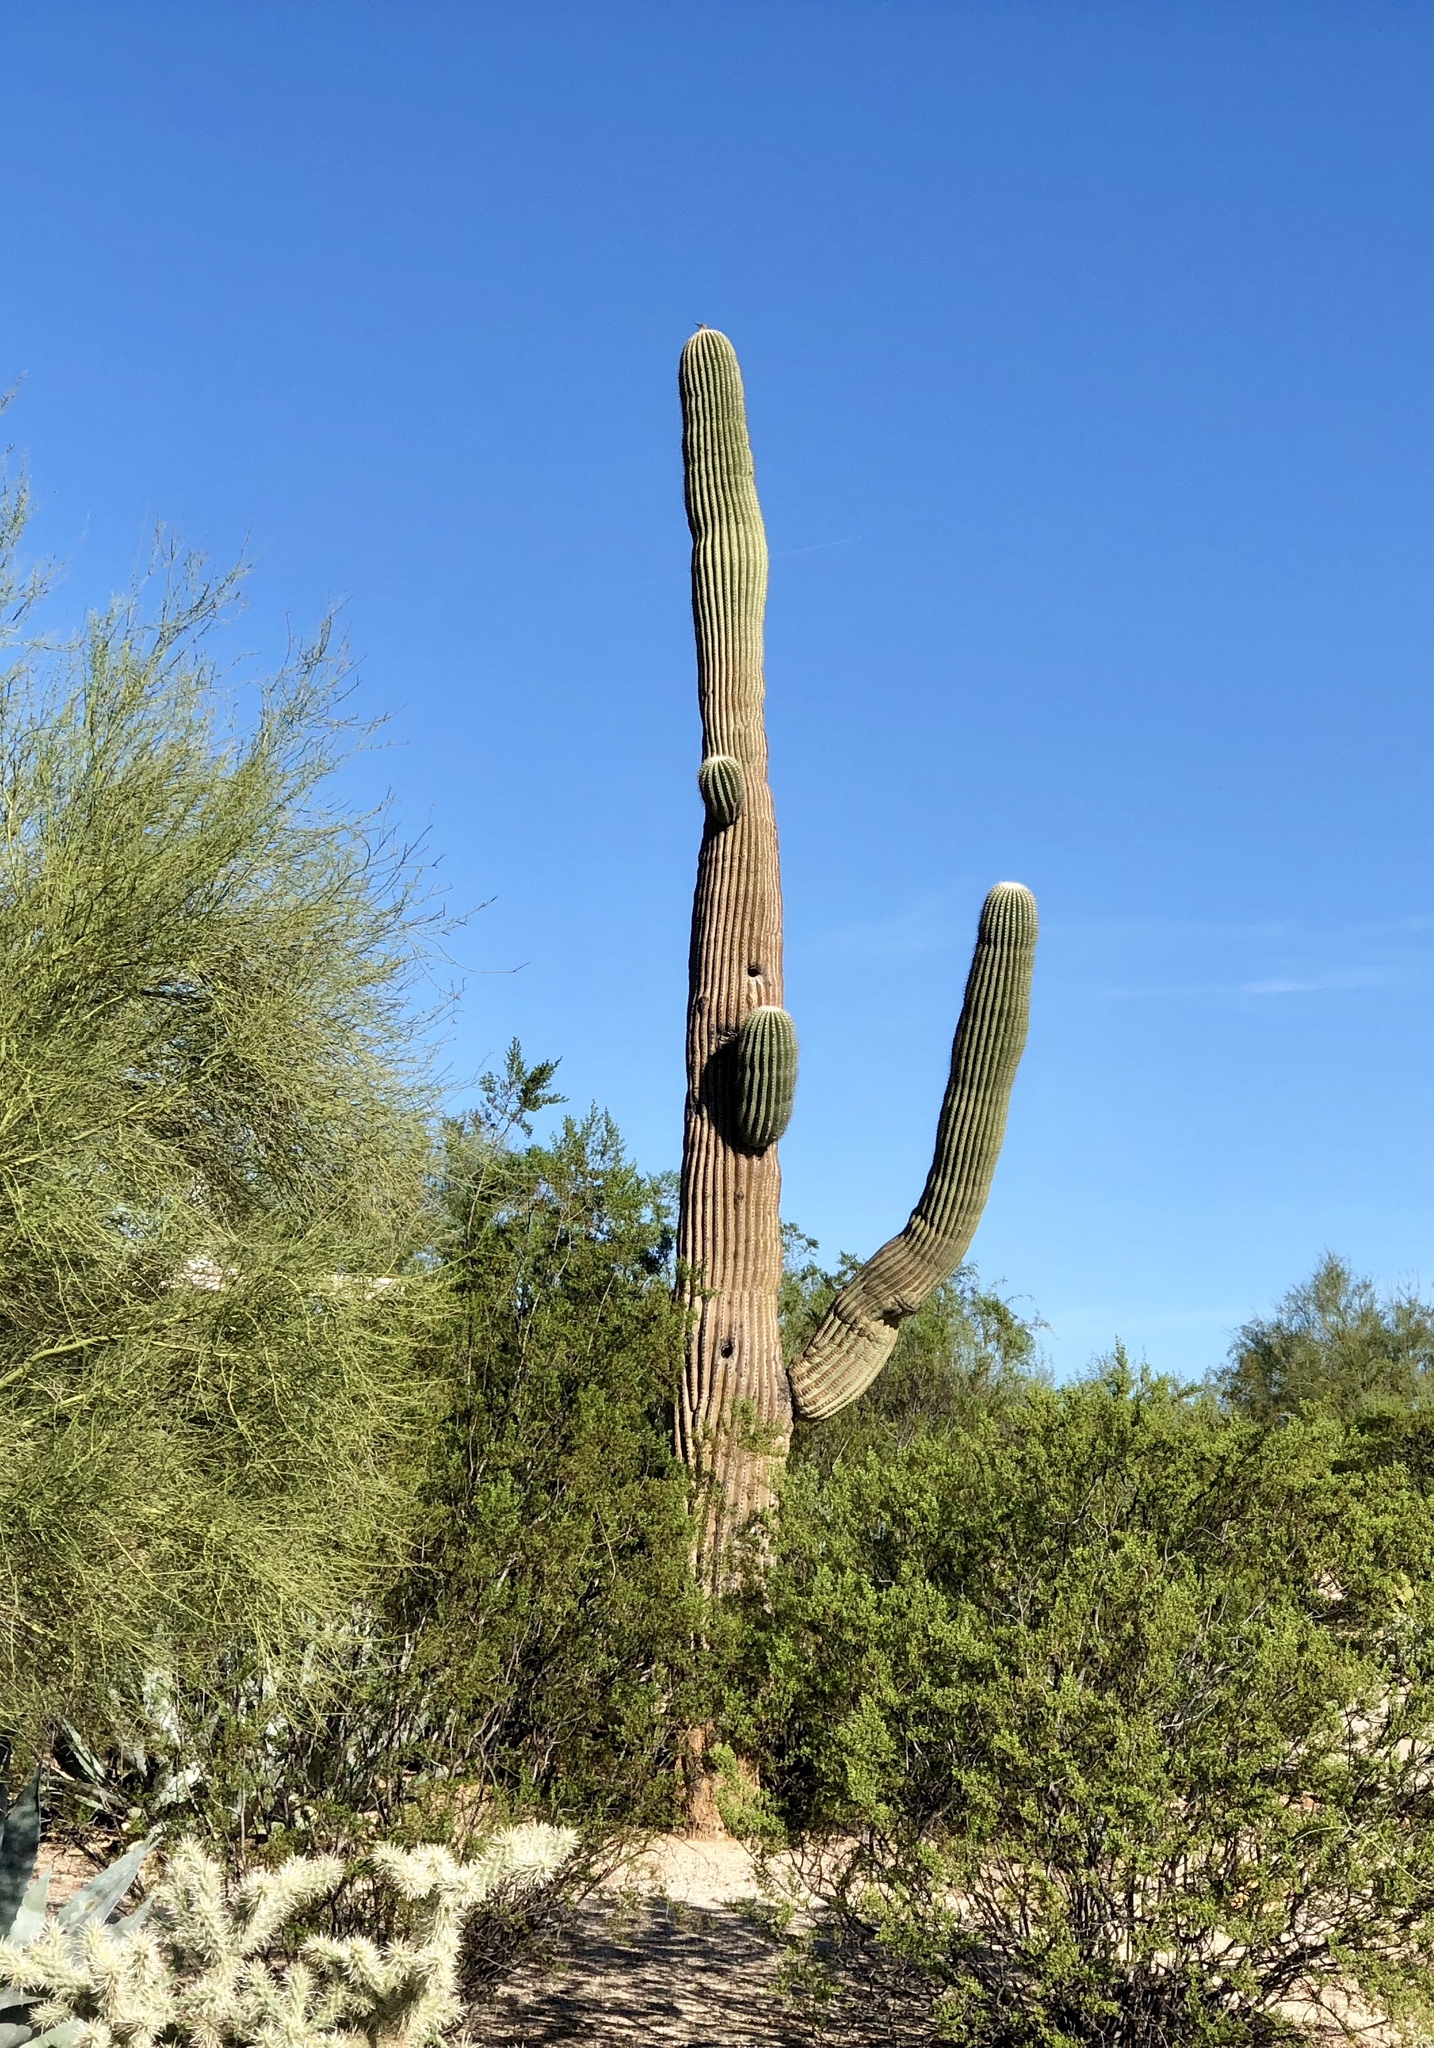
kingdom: Plantae
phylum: Tracheophyta
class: Magnoliopsida
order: Caryophyllales
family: Cactaceae
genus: Carnegiea
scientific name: Carnegiea gigantea
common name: Saguaro
